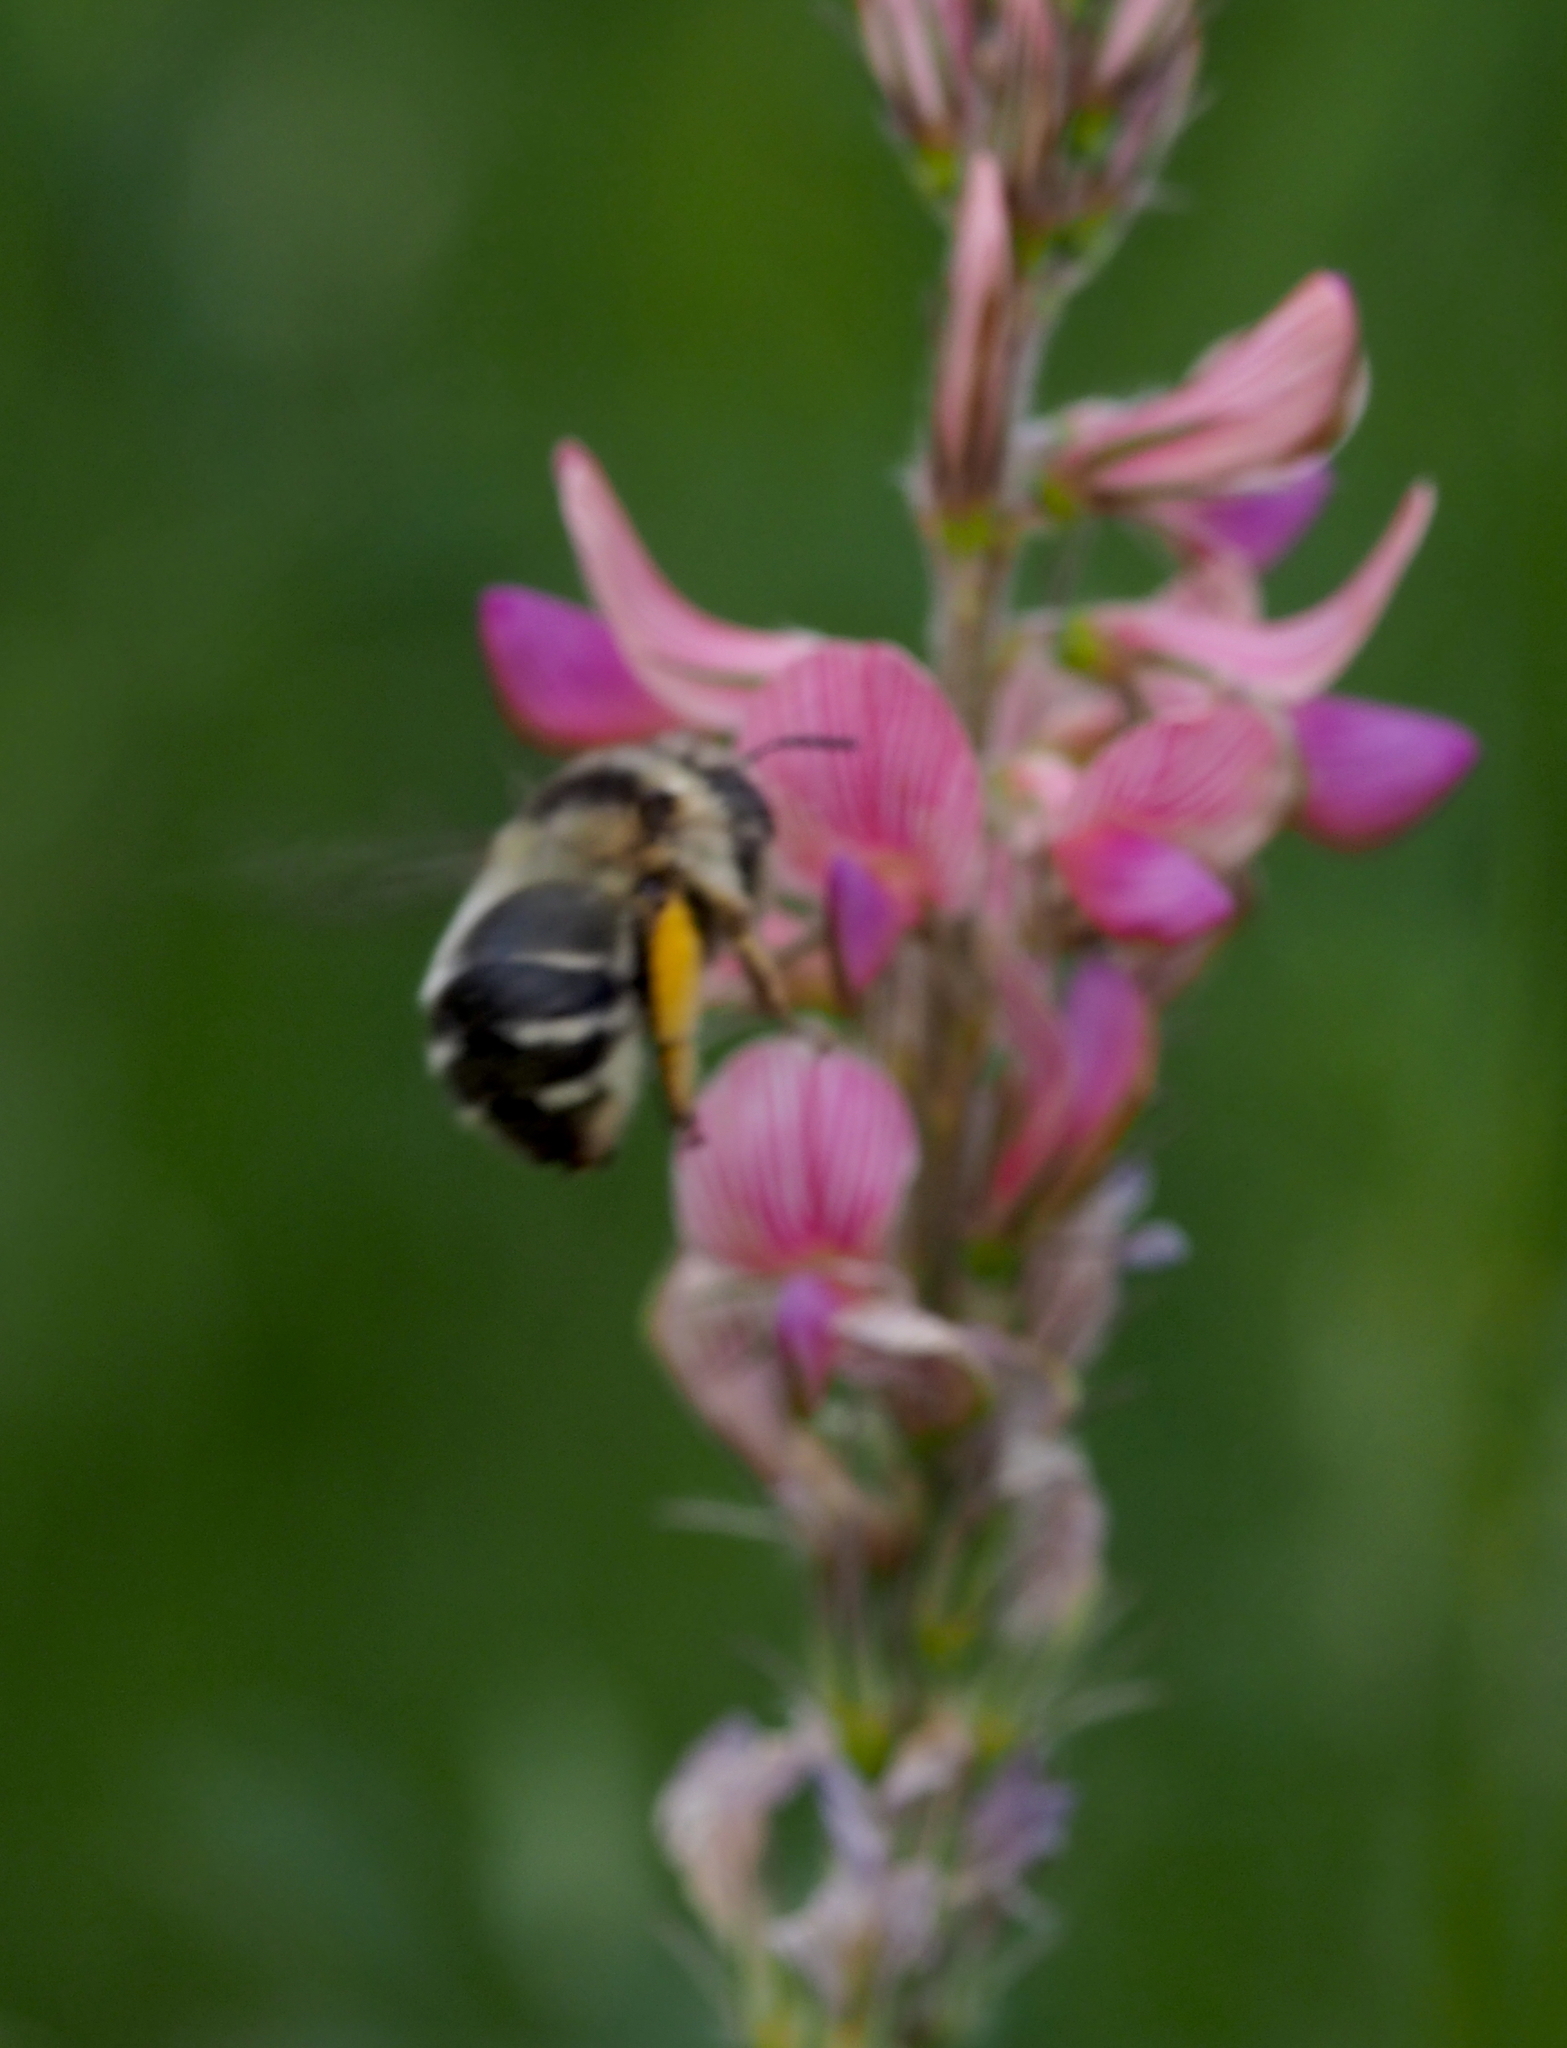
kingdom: Animalia
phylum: Arthropoda
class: Insecta
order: Hymenoptera
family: Apidae
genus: Anthophora
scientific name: Anthophora aestivalis
